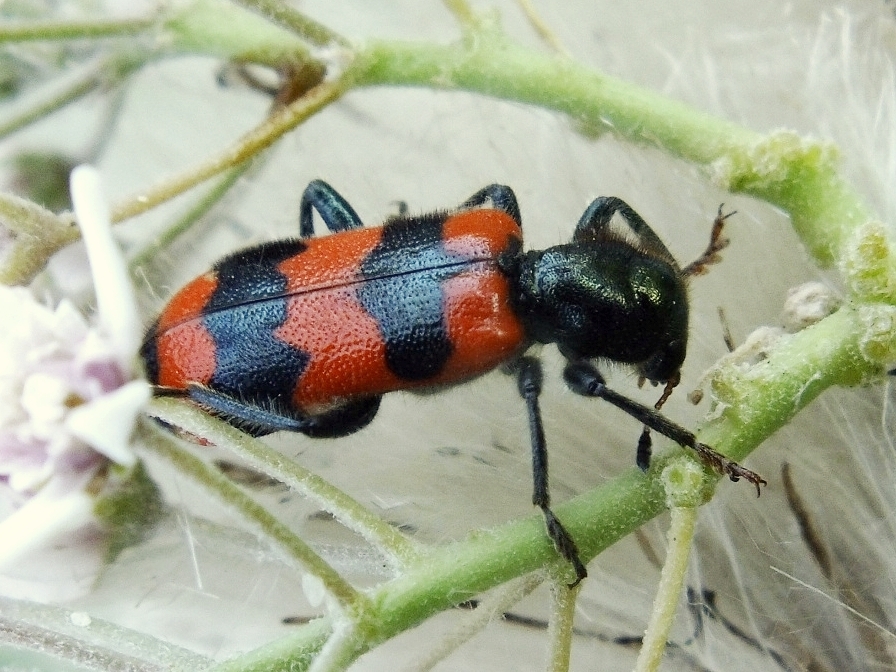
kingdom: Animalia
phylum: Arthropoda
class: Insecta
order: Coleoptera
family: Cleridae
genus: Trichodes
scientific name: Trichodes apiarius
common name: Bee-eating beetle
